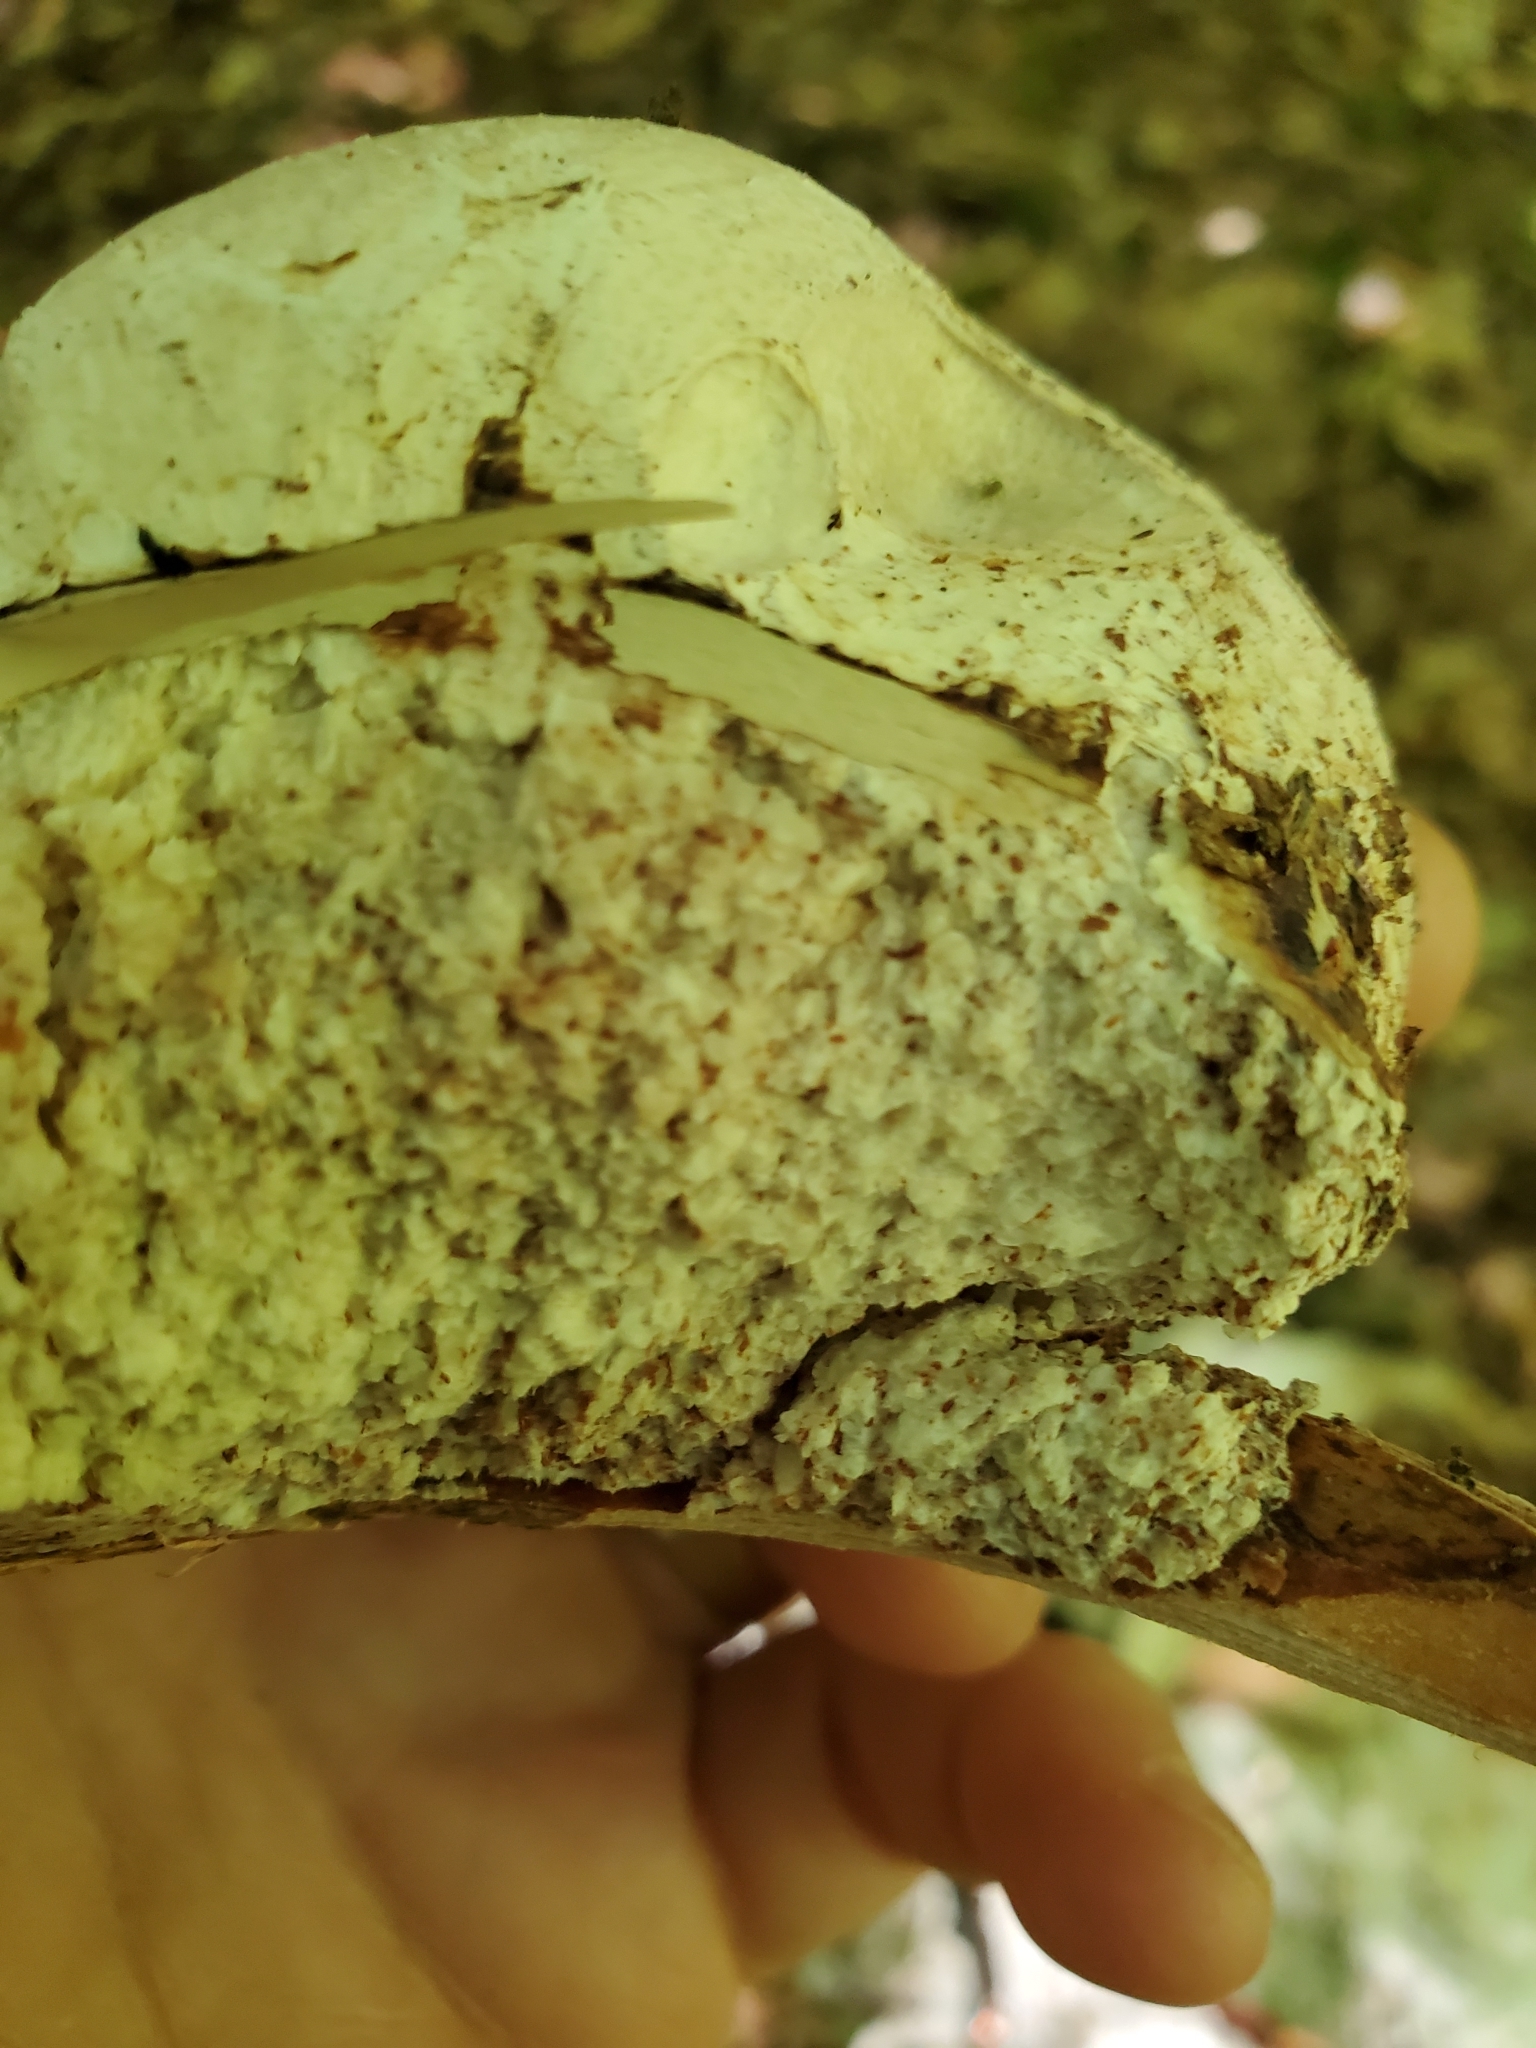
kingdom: Fungi
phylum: Basidiomycota
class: Agaricomycetes
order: Polyporales
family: Fomitopsidaceae
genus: Fomitopsis
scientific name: Fomitopsis betulina
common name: Birch polypore
